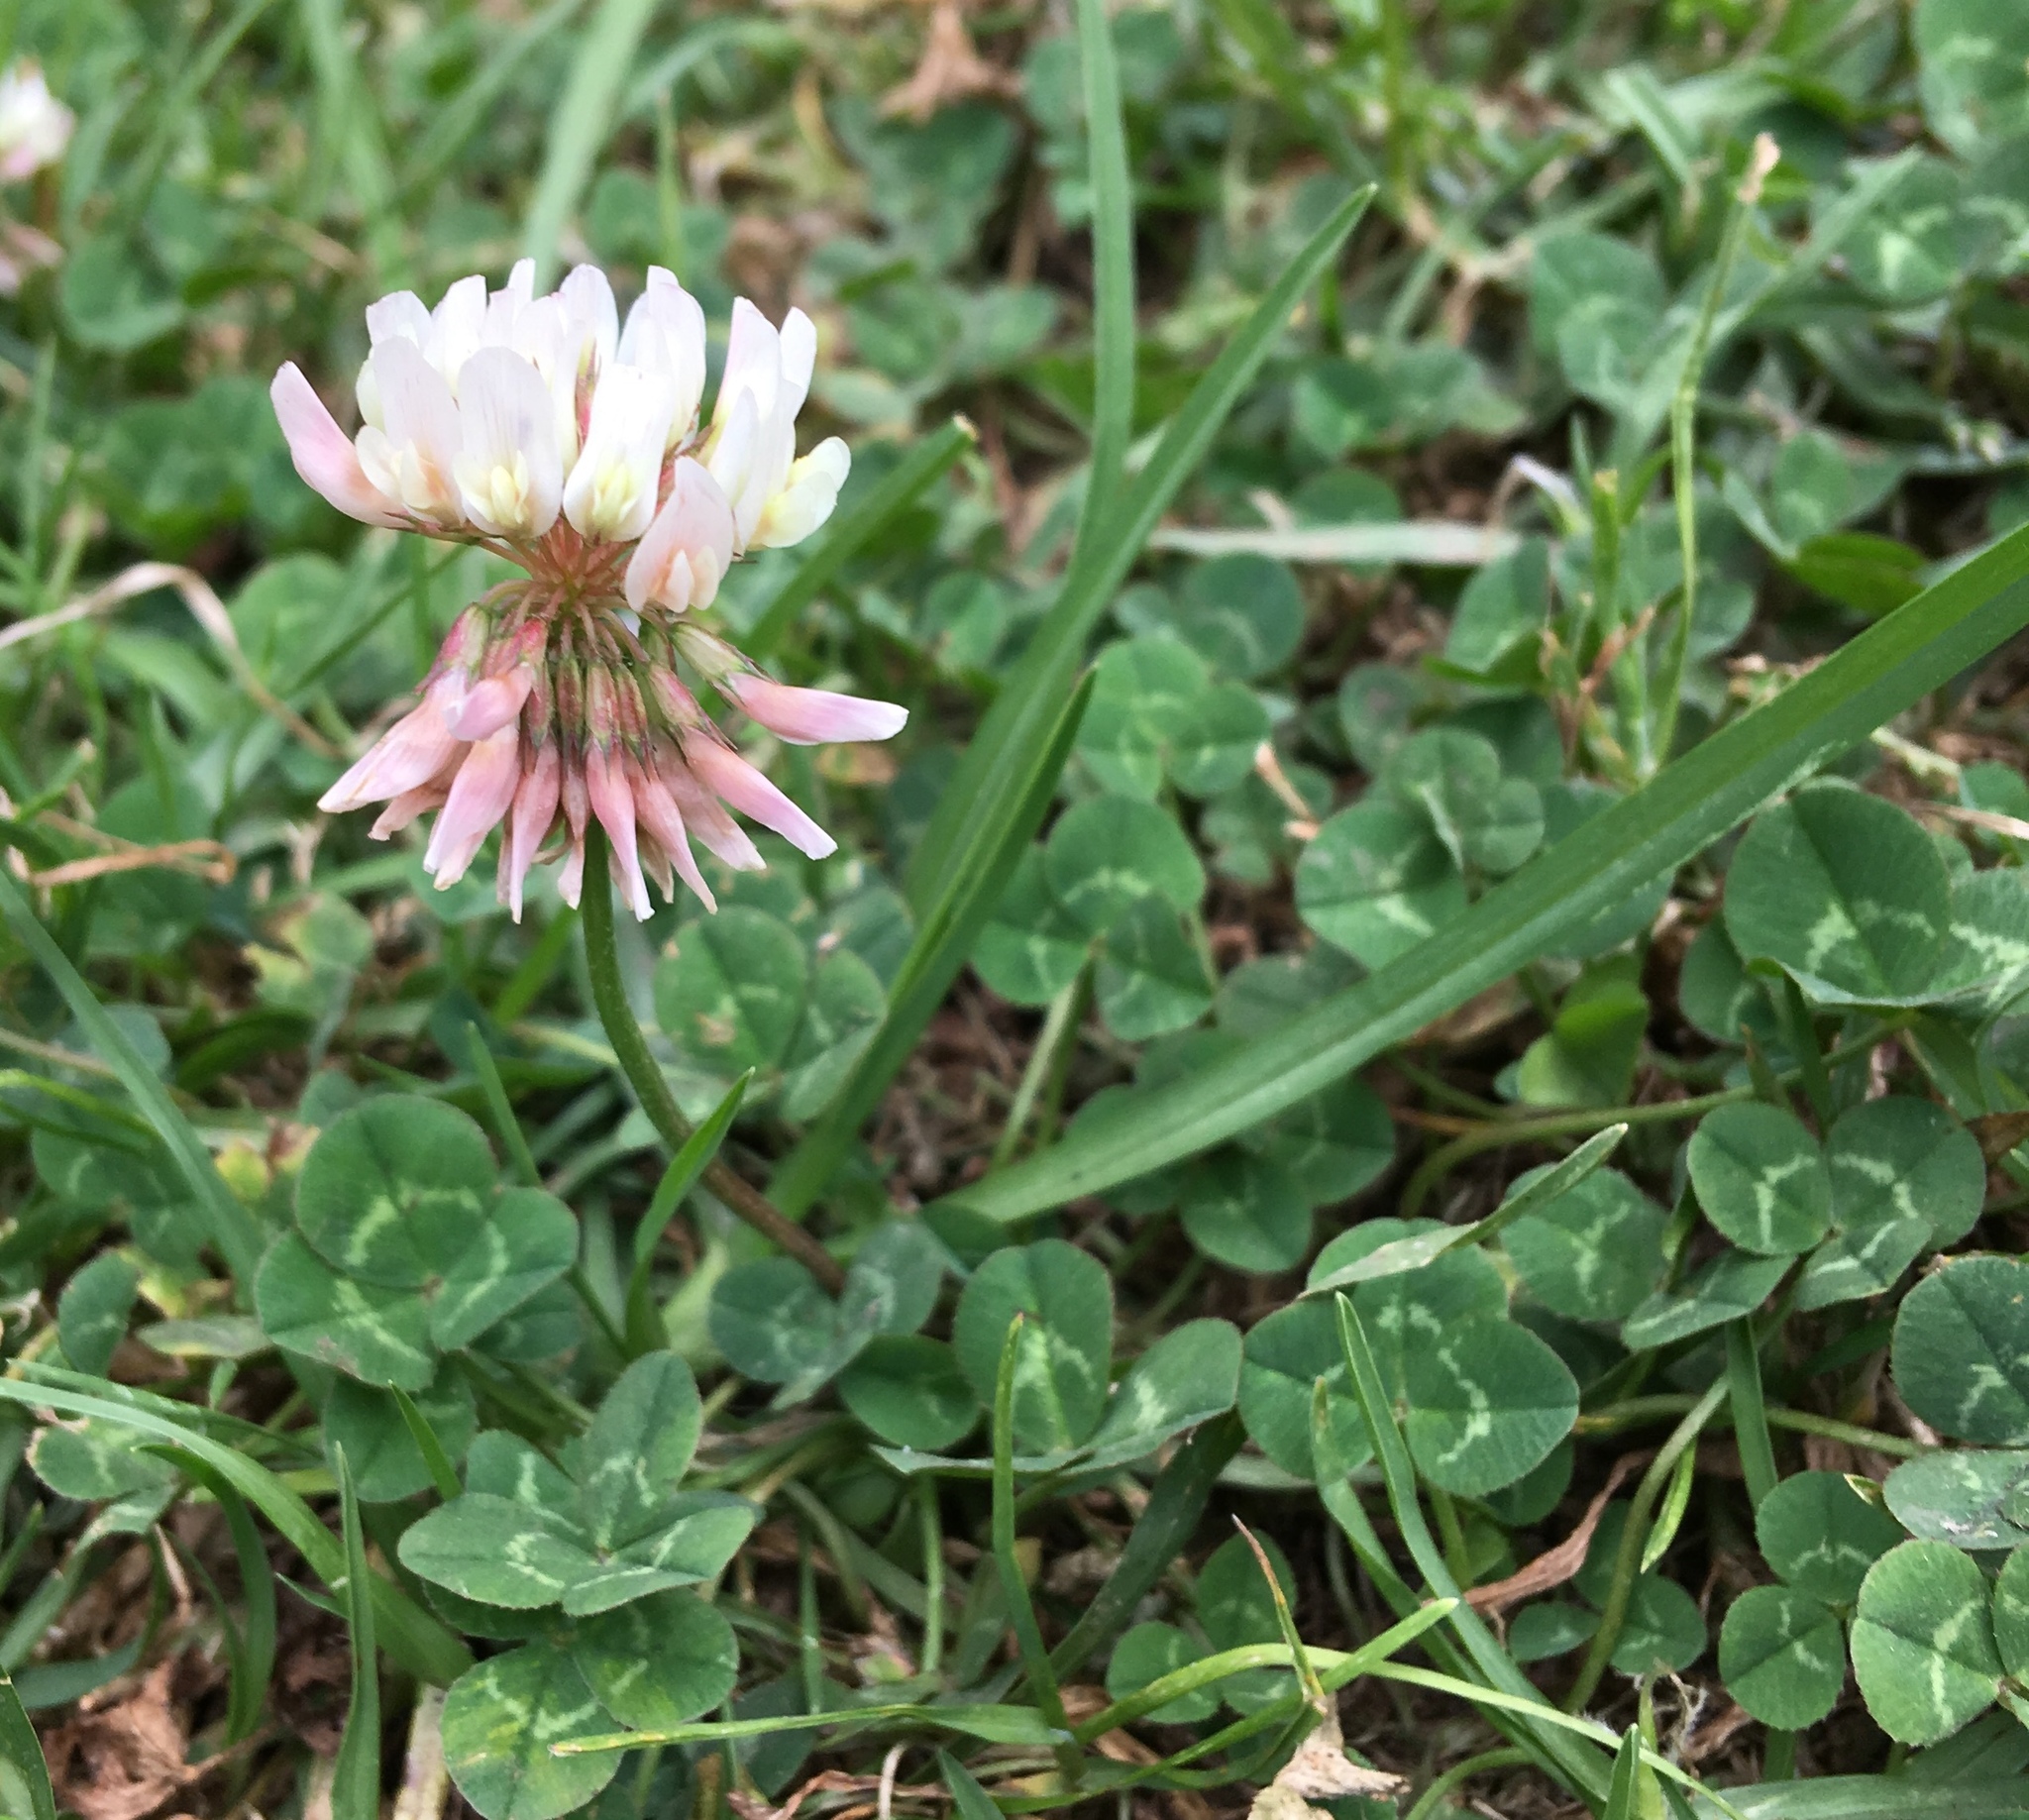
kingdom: Plantae
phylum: Tracheophyta
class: Magnoliopsida
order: Fabales
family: Fabaceae
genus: Trifolium
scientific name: Trifolium repens
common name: White clover
